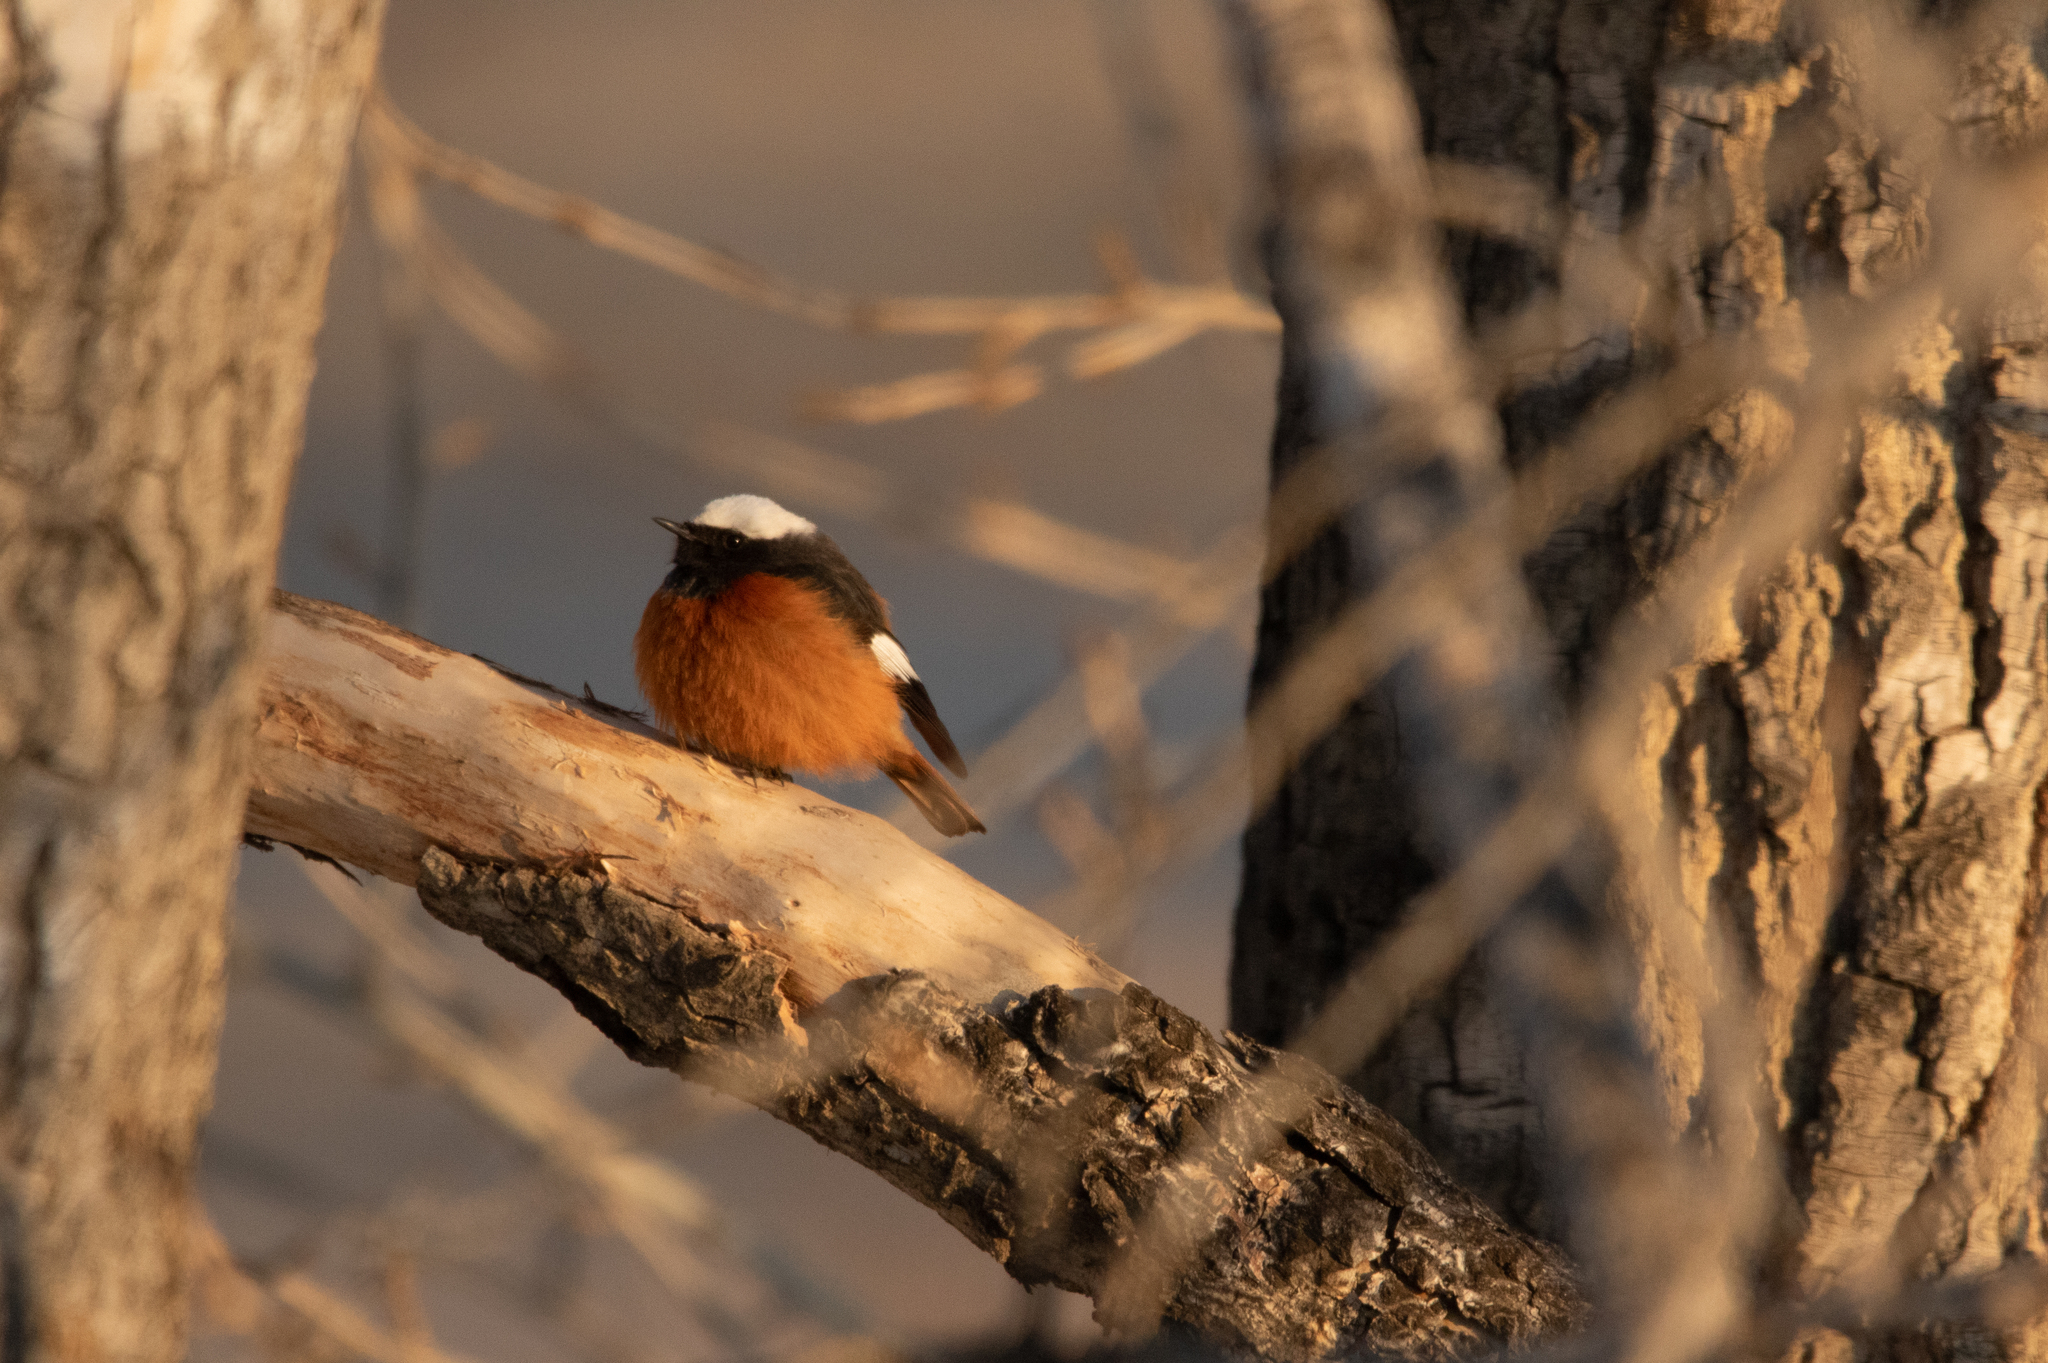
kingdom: Animalia
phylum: Chordata
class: Aves
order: Passeriformes
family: Muscicapidae
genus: Phoenicurus
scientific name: Phoenicurus erythrogastrus
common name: Güldenstädt's redstart
